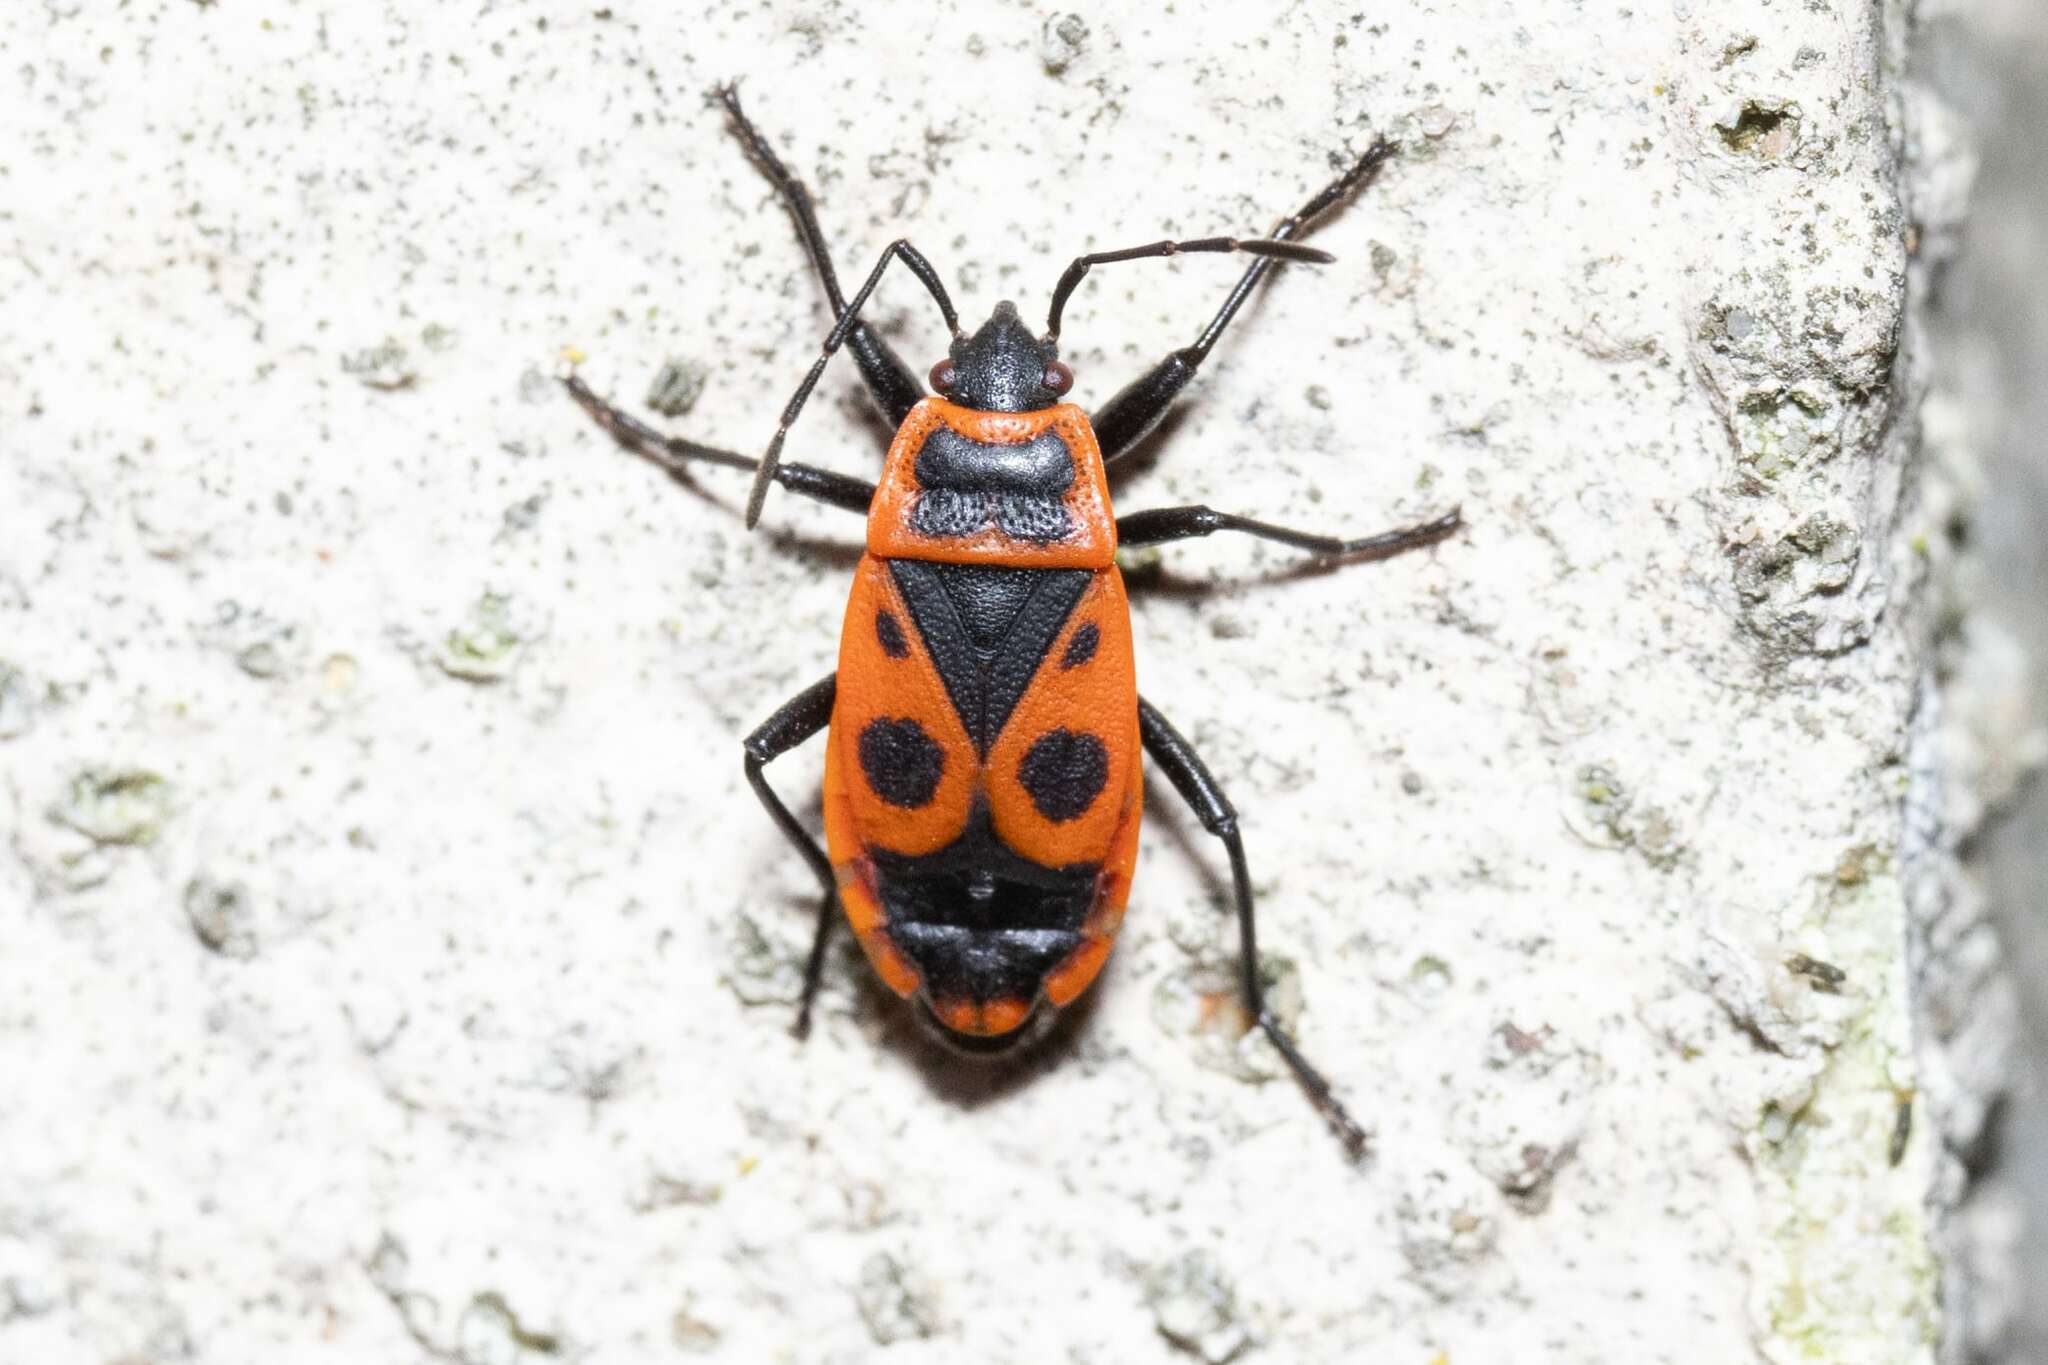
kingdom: Animalia
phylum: Arthropoda
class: Insecta
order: Hemiptera
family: Pyrrhocoridae
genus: Pyrrhocoris
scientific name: Pyrrhocoris apterus
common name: Firebug
